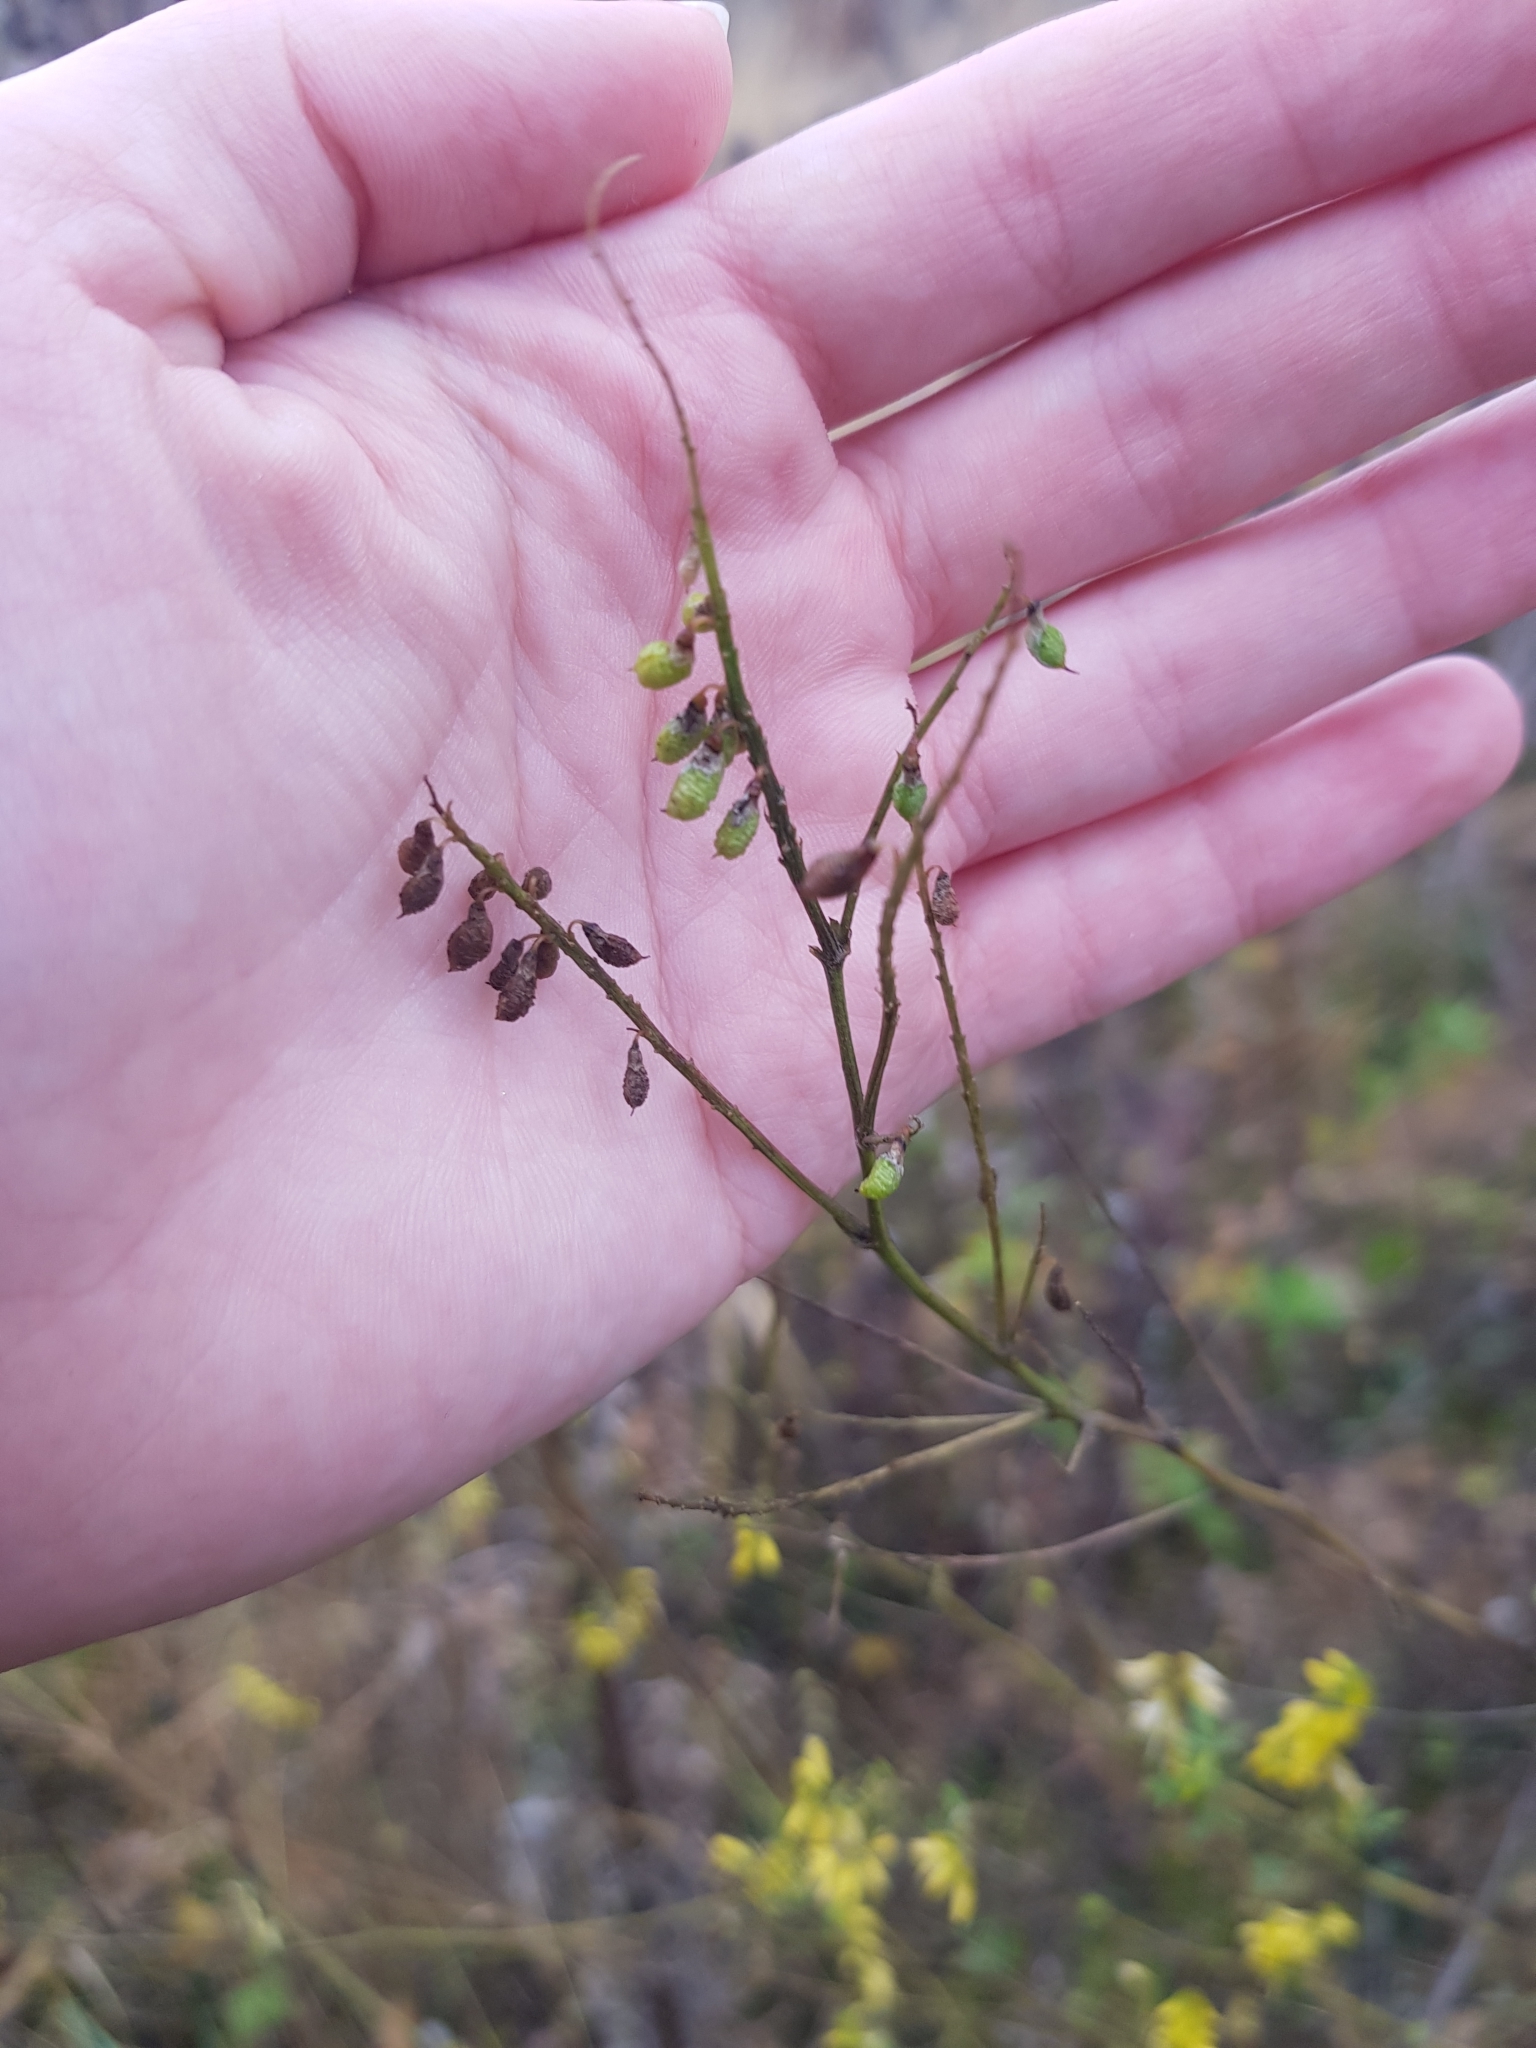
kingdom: Plantae
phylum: Tracheophyta
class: Magnoliopsida
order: Fabales
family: Fabaceae
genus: Melilotus
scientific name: Melilotus officinalis
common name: Sweetclover
